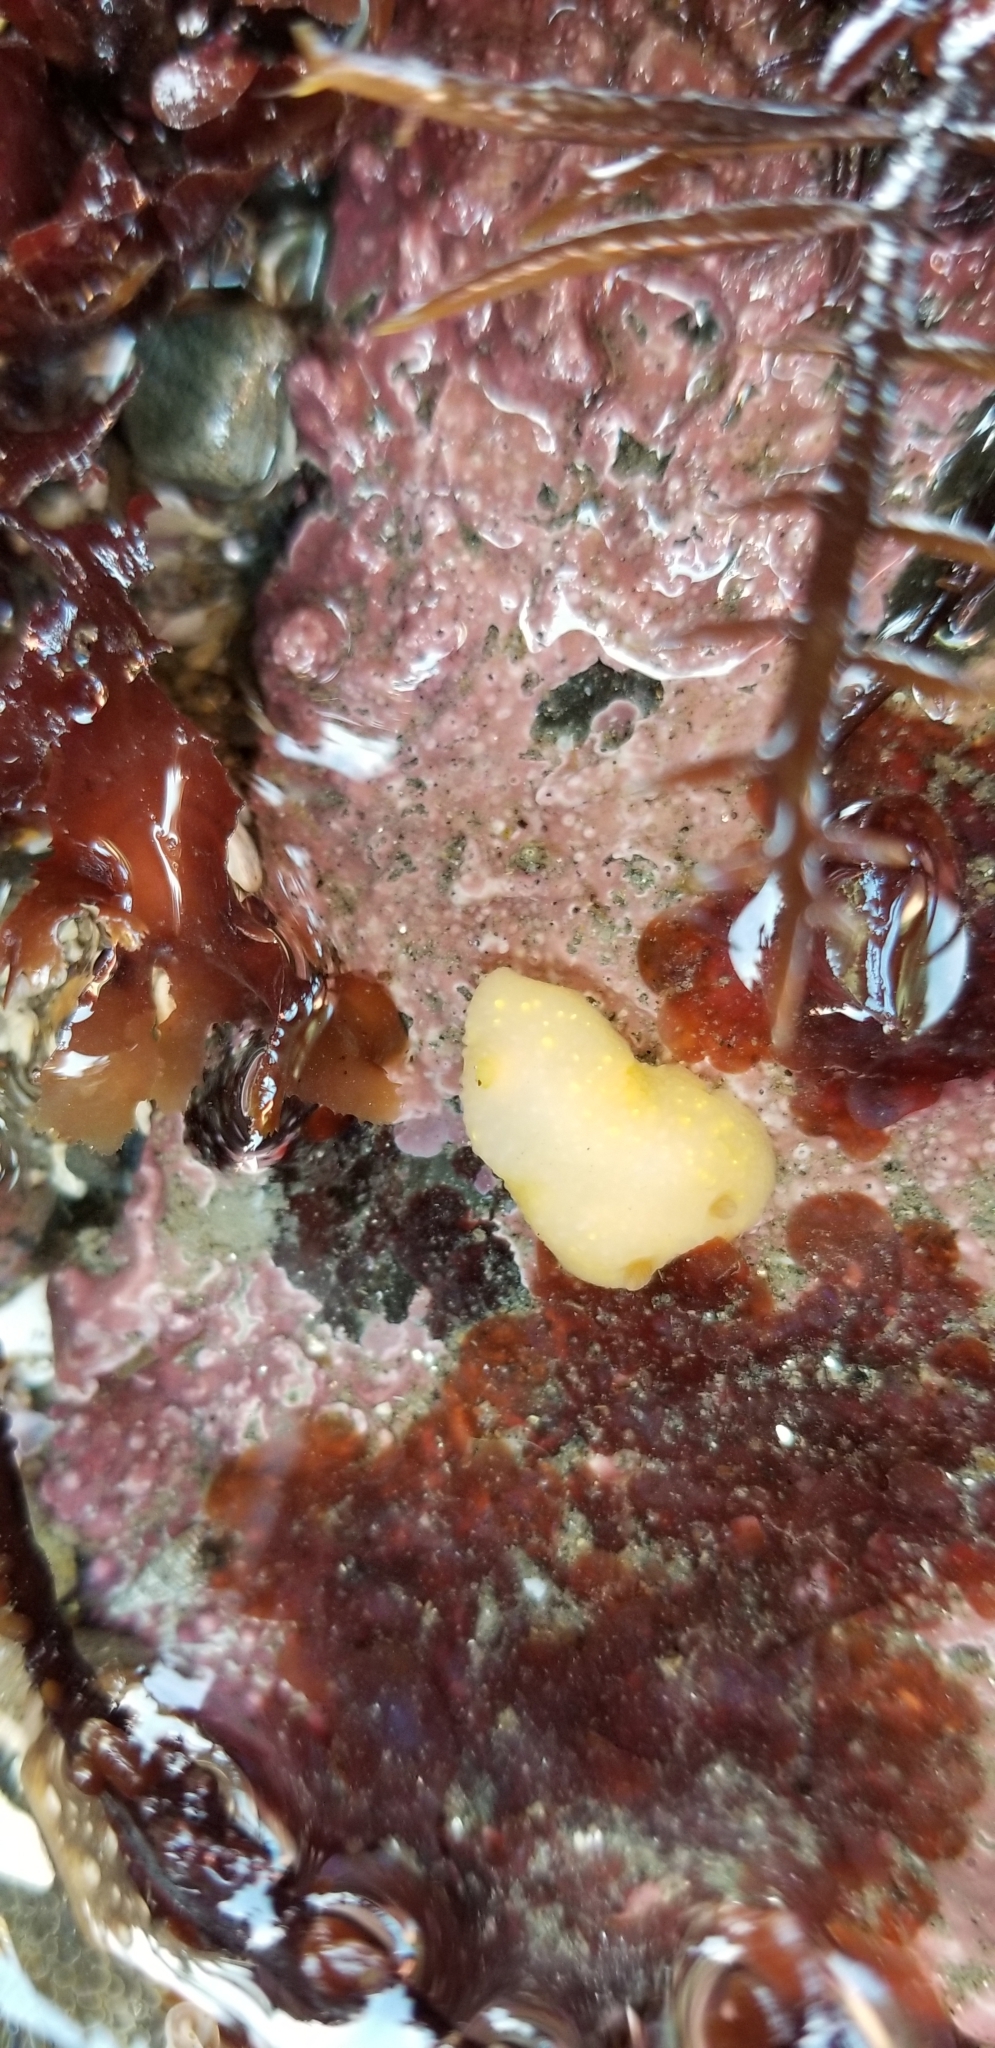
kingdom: Animalia
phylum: Mollusca
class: Gastropoda
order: Nudibranchia
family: Cadlinidae
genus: Cadlina
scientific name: Cadlina modesta
